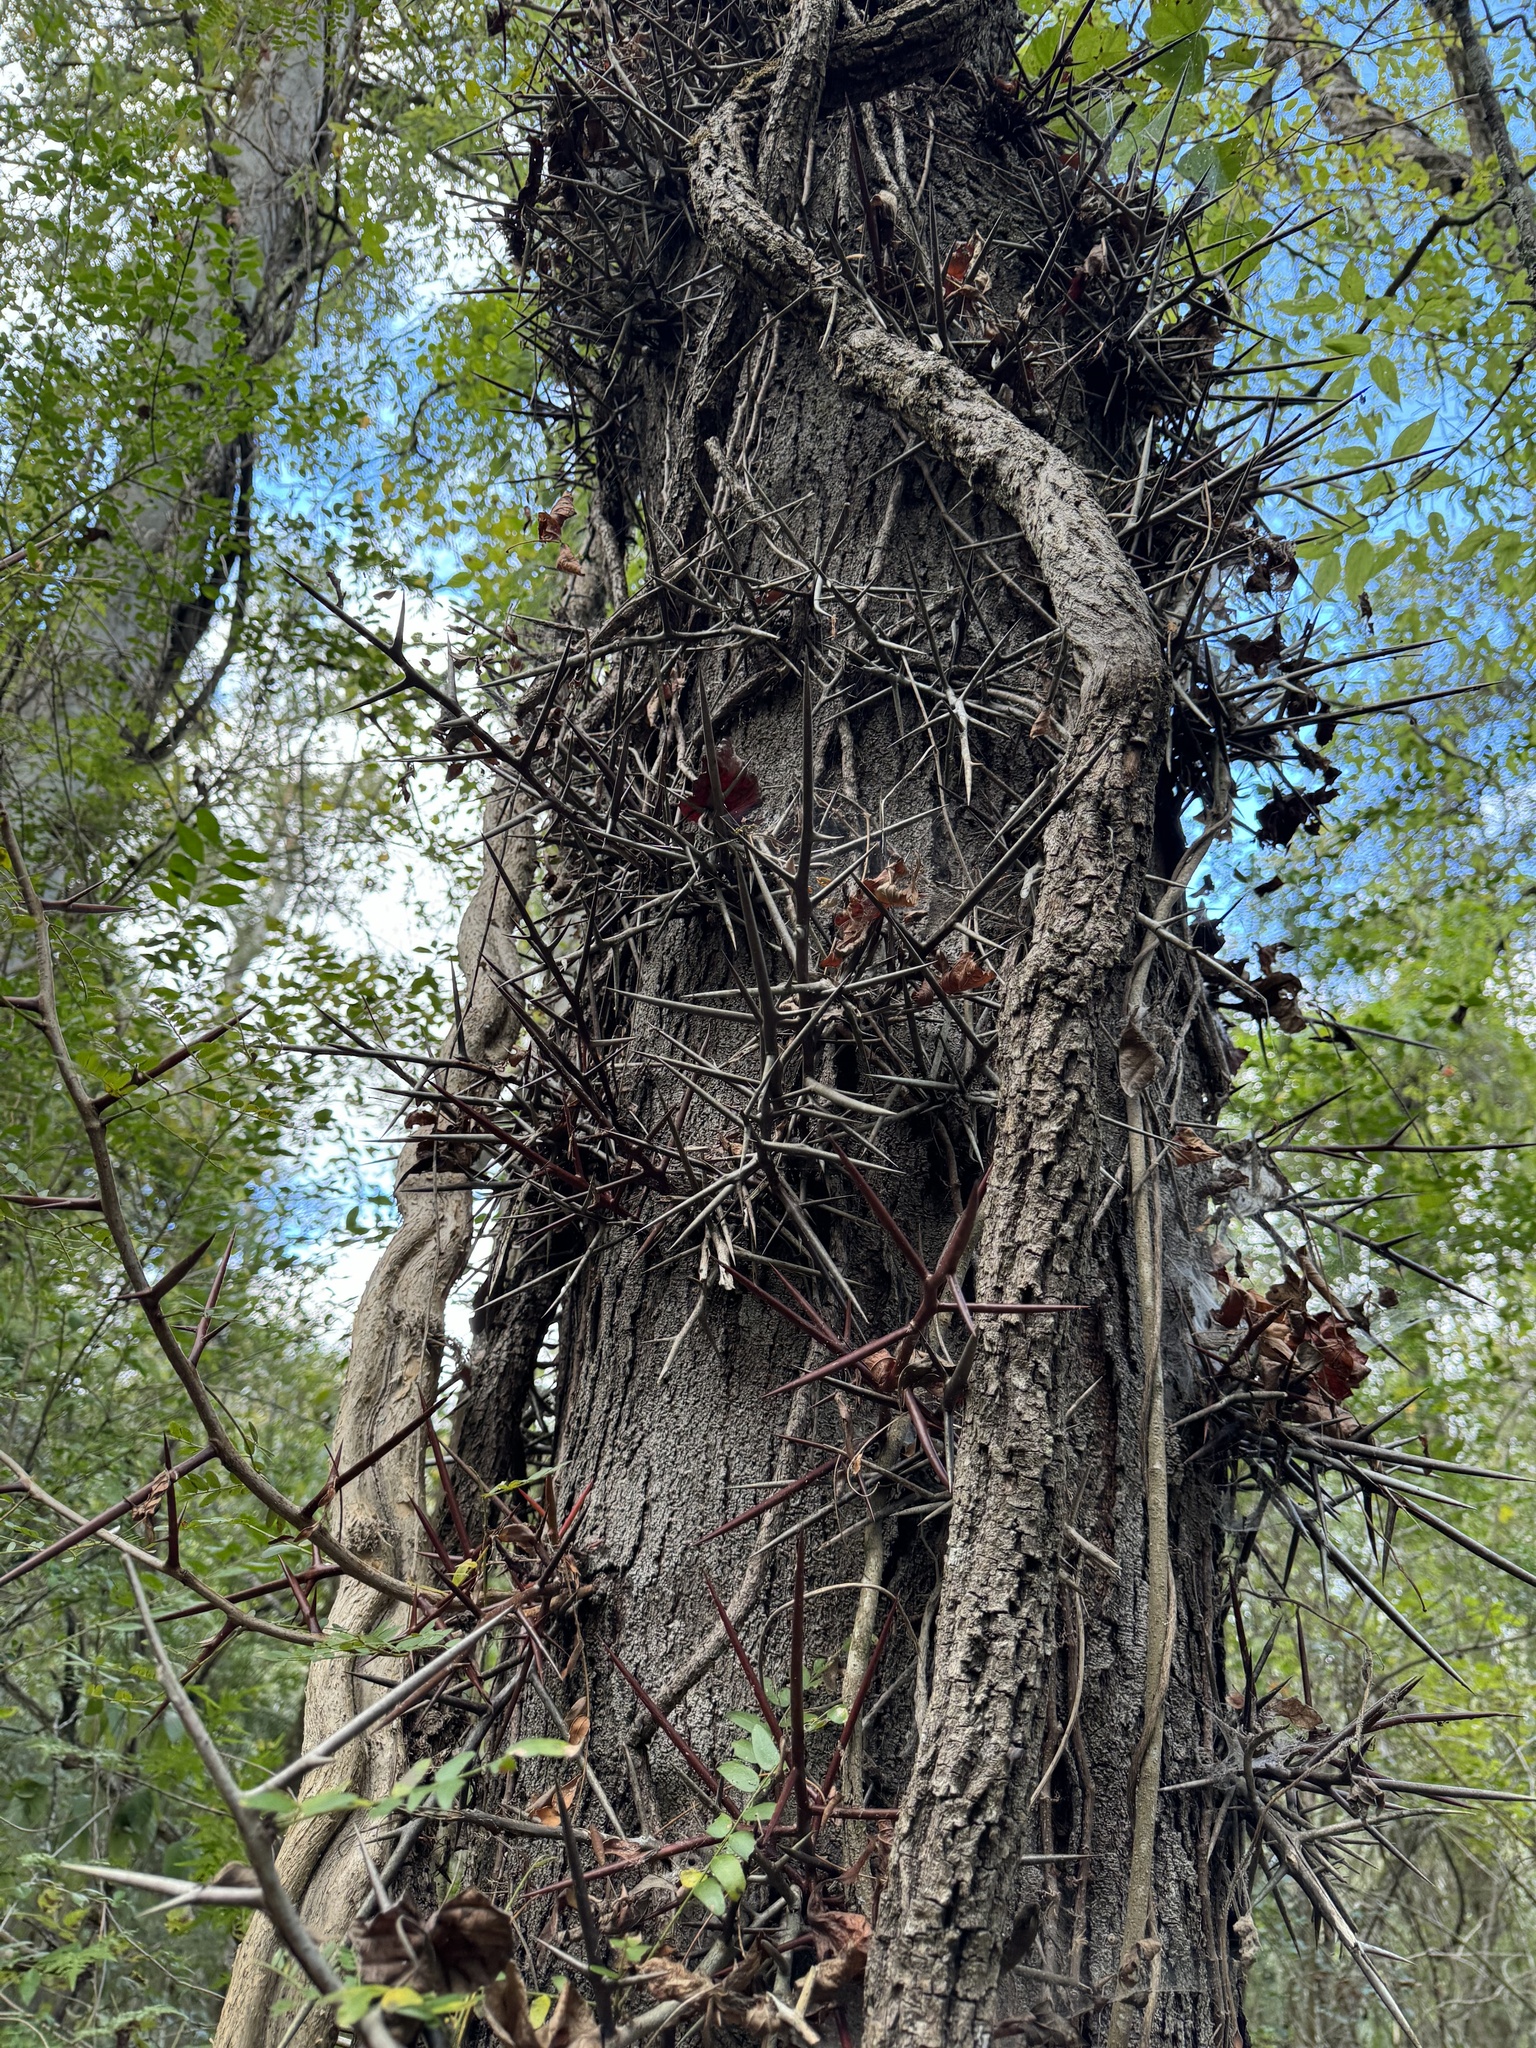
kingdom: Plantae
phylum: Tracheophyta
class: Magnoliopsida
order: Fabales
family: Fabaceae
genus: Gleditsia
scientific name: Gleditsia triacanthos
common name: Common honeylocust
